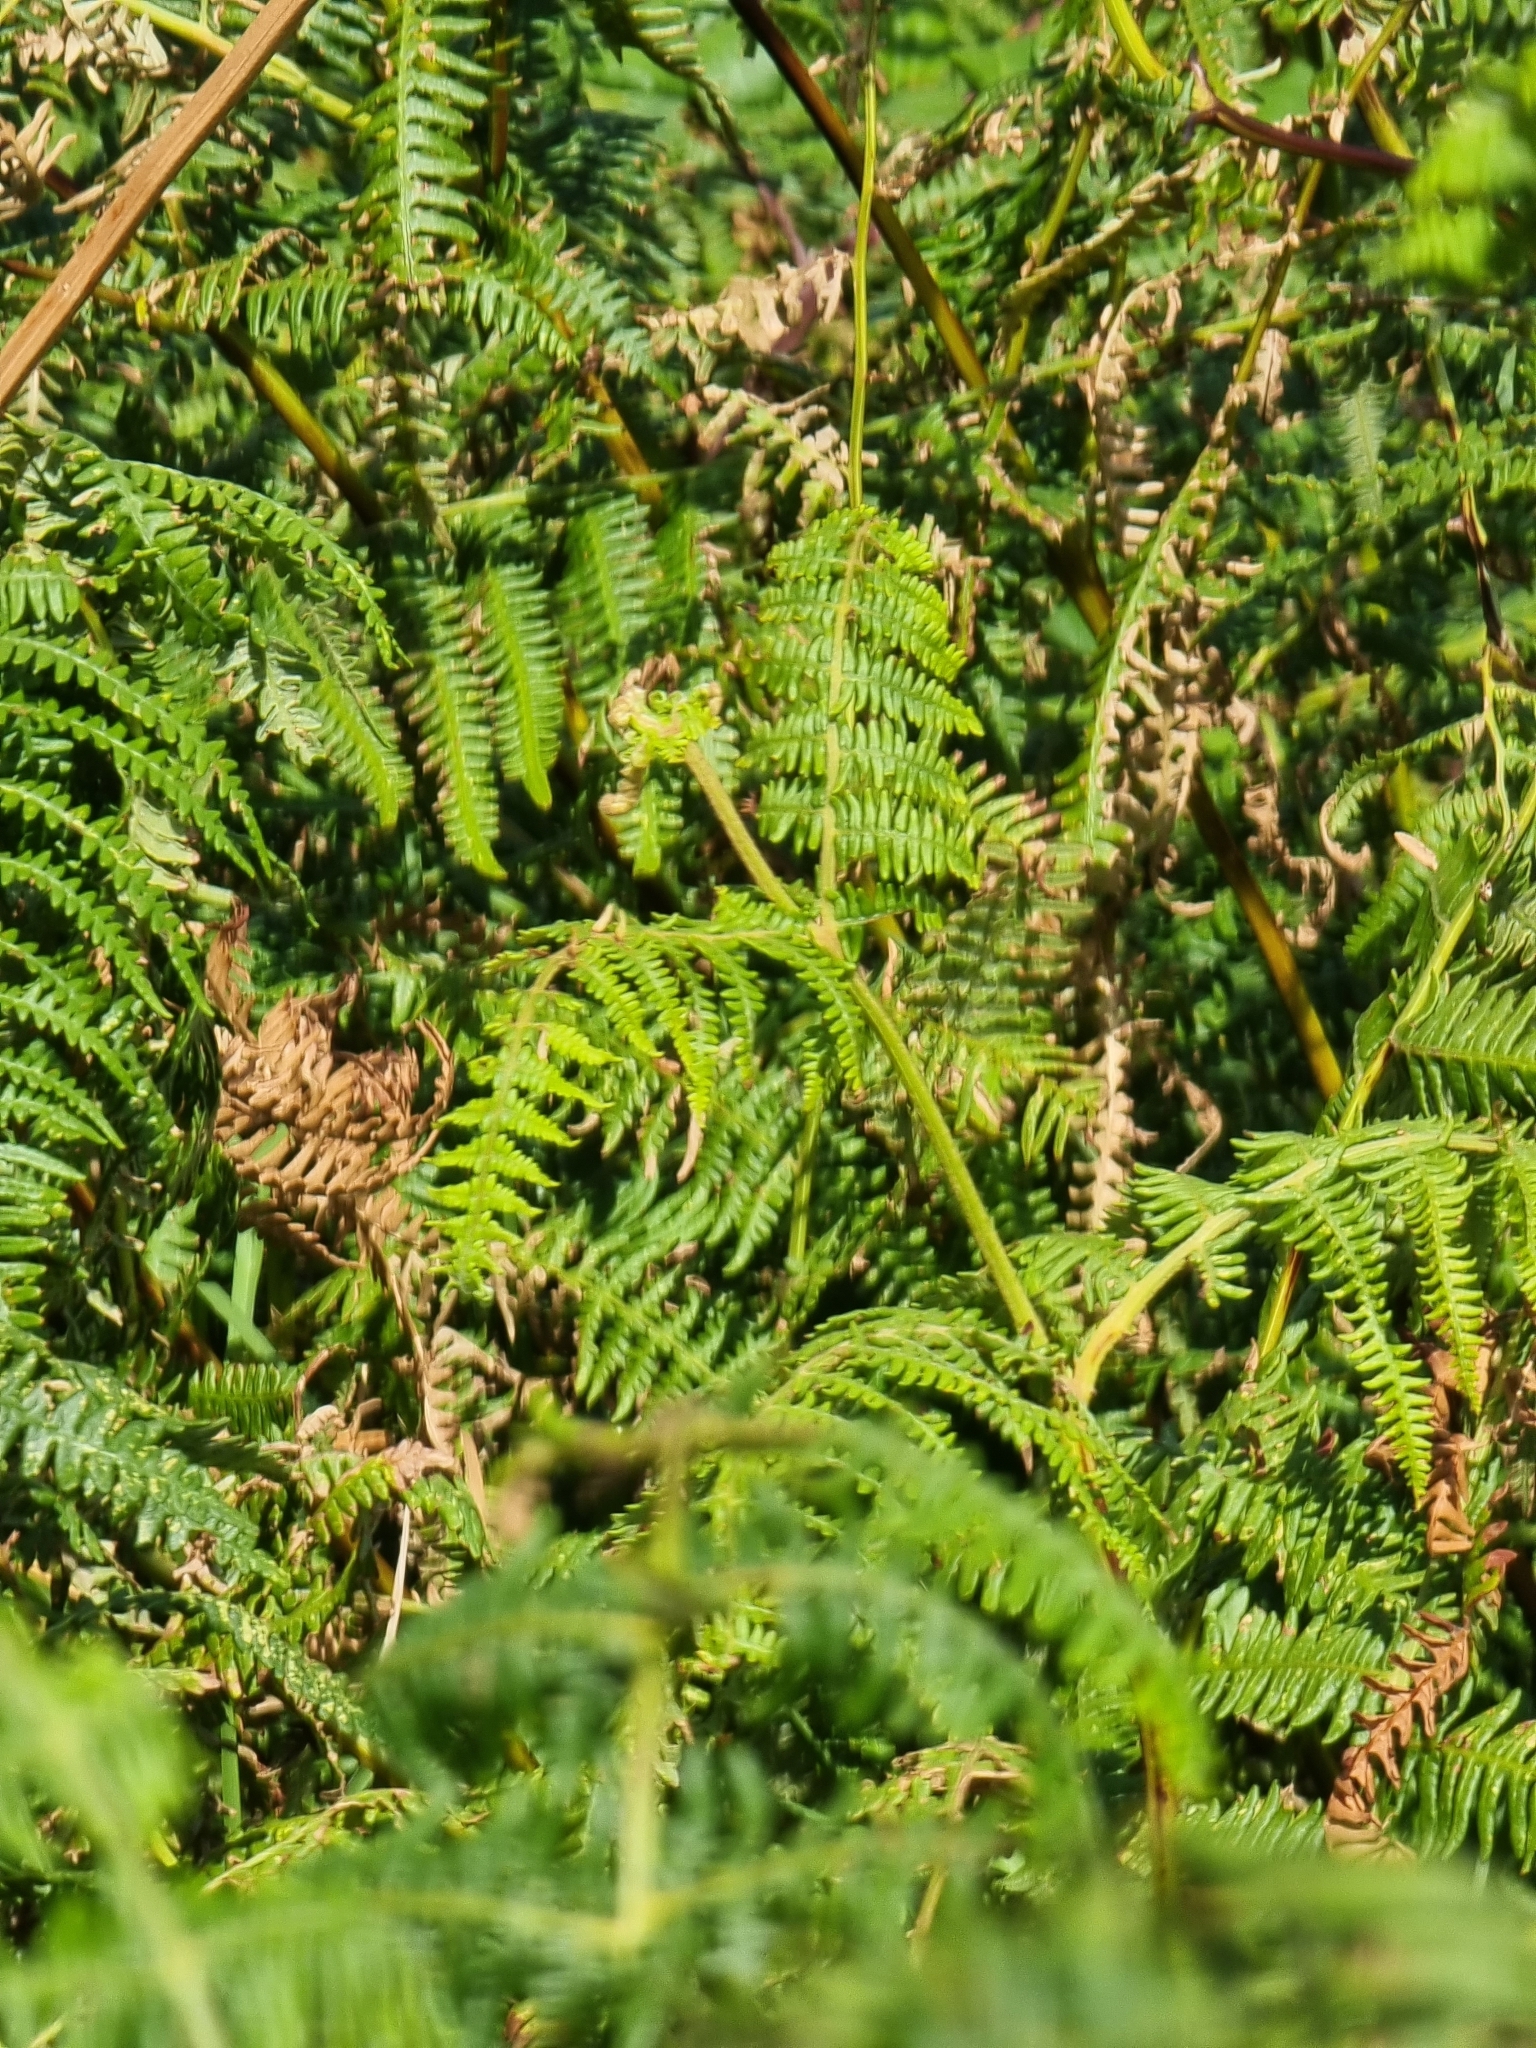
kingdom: Plantae
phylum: Tracheophyta
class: Polypodiopsida
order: Polypodiales
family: Dennstaedtiaceae
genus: Pteridium
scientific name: Pteridium aquilinum
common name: Bracken
